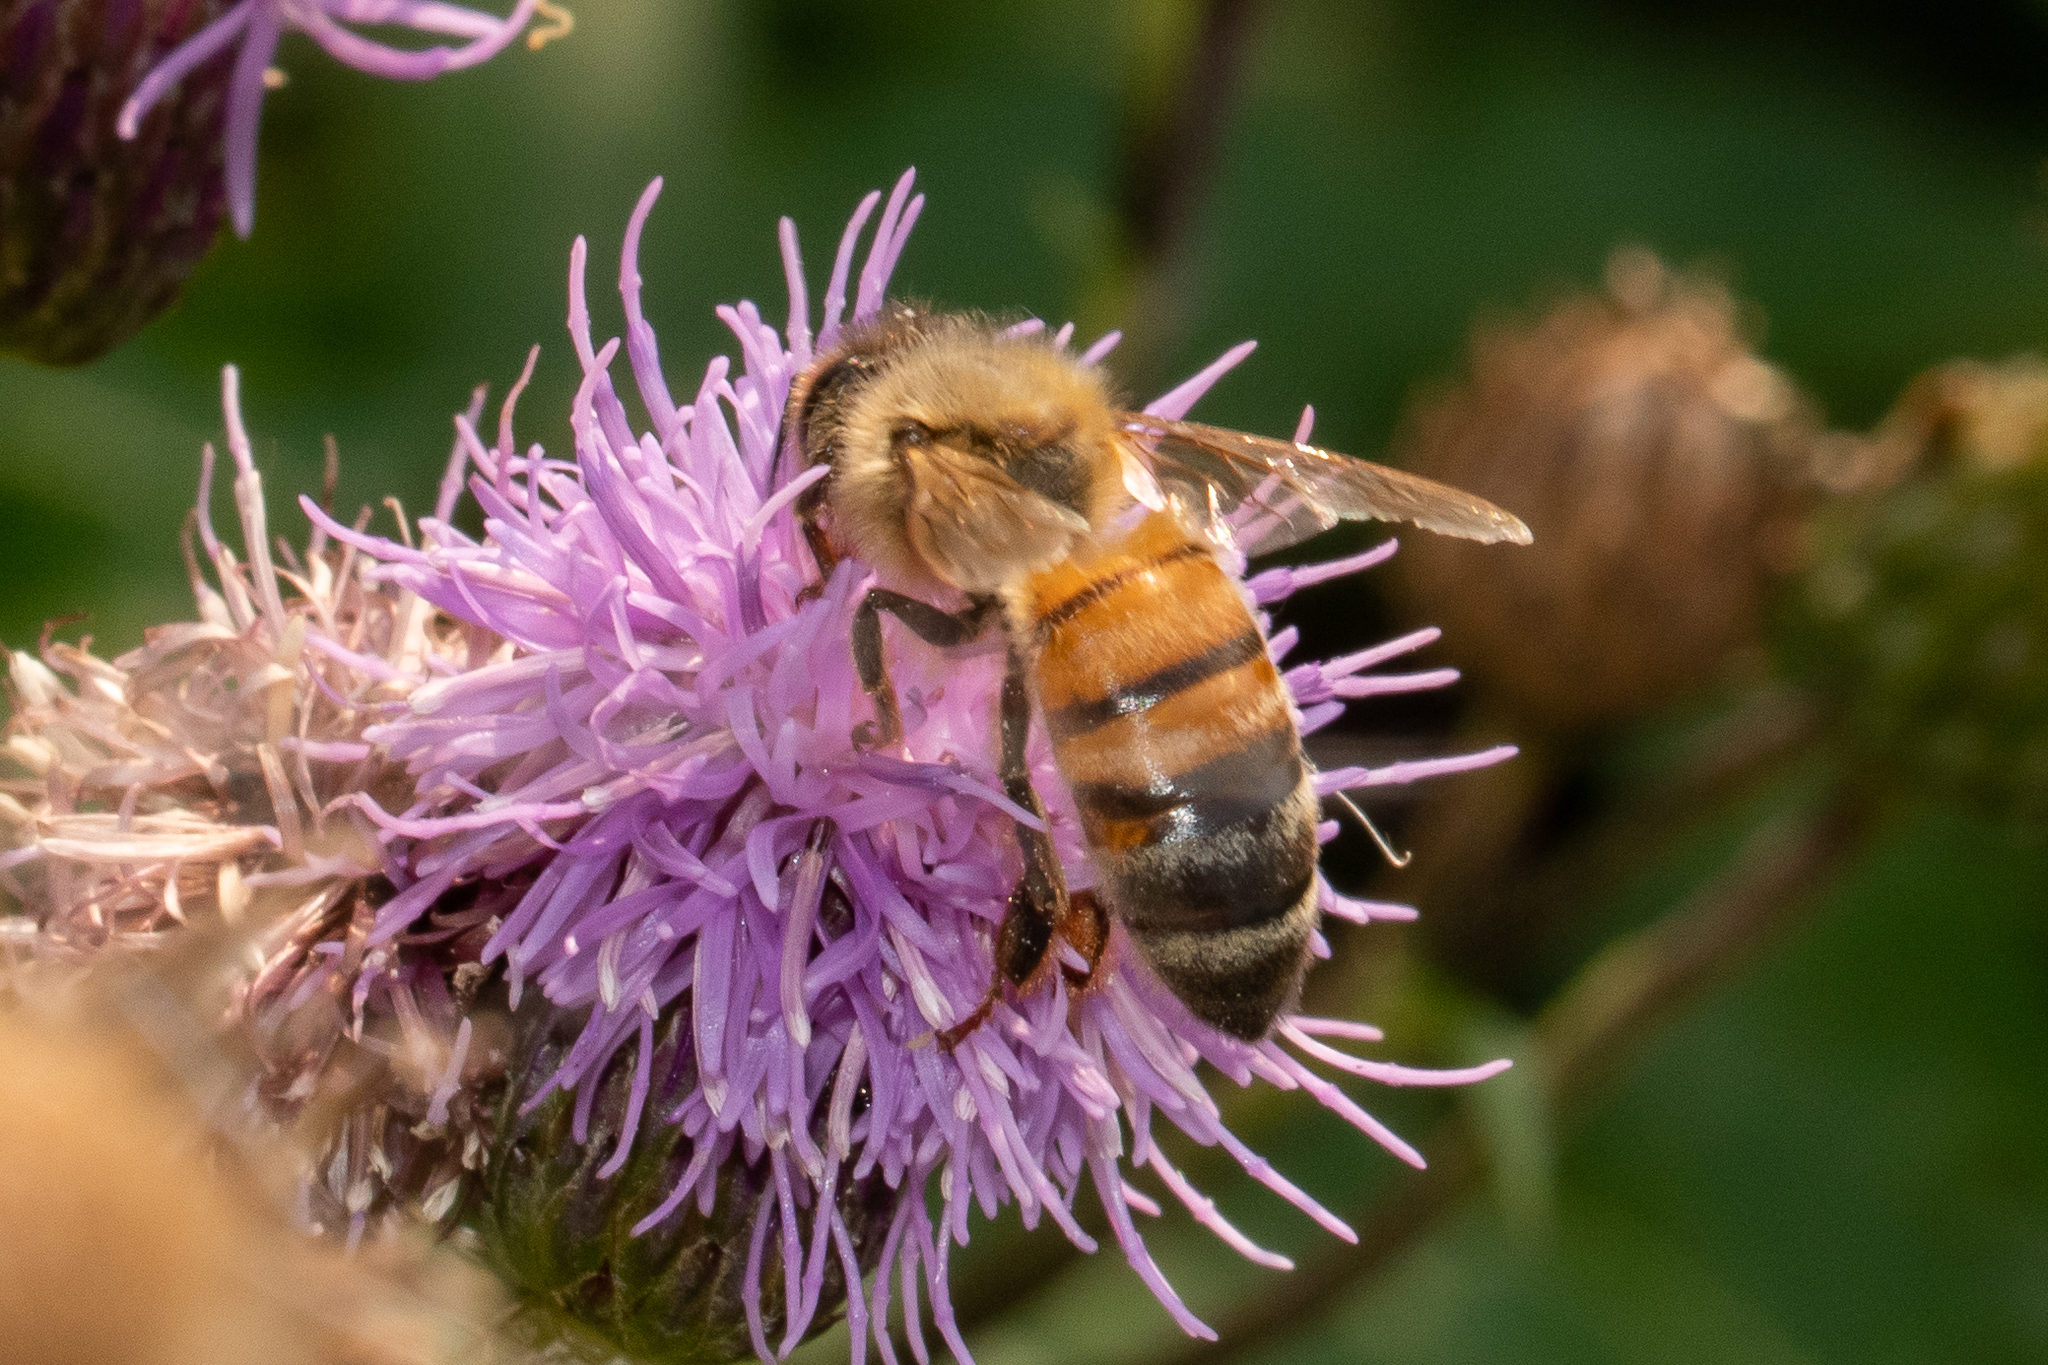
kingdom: Animalia
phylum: Arthropoda
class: Insecta
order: Hymenoptera
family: Apidae
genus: Apis
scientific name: Apis mellifera
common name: Honey bee
